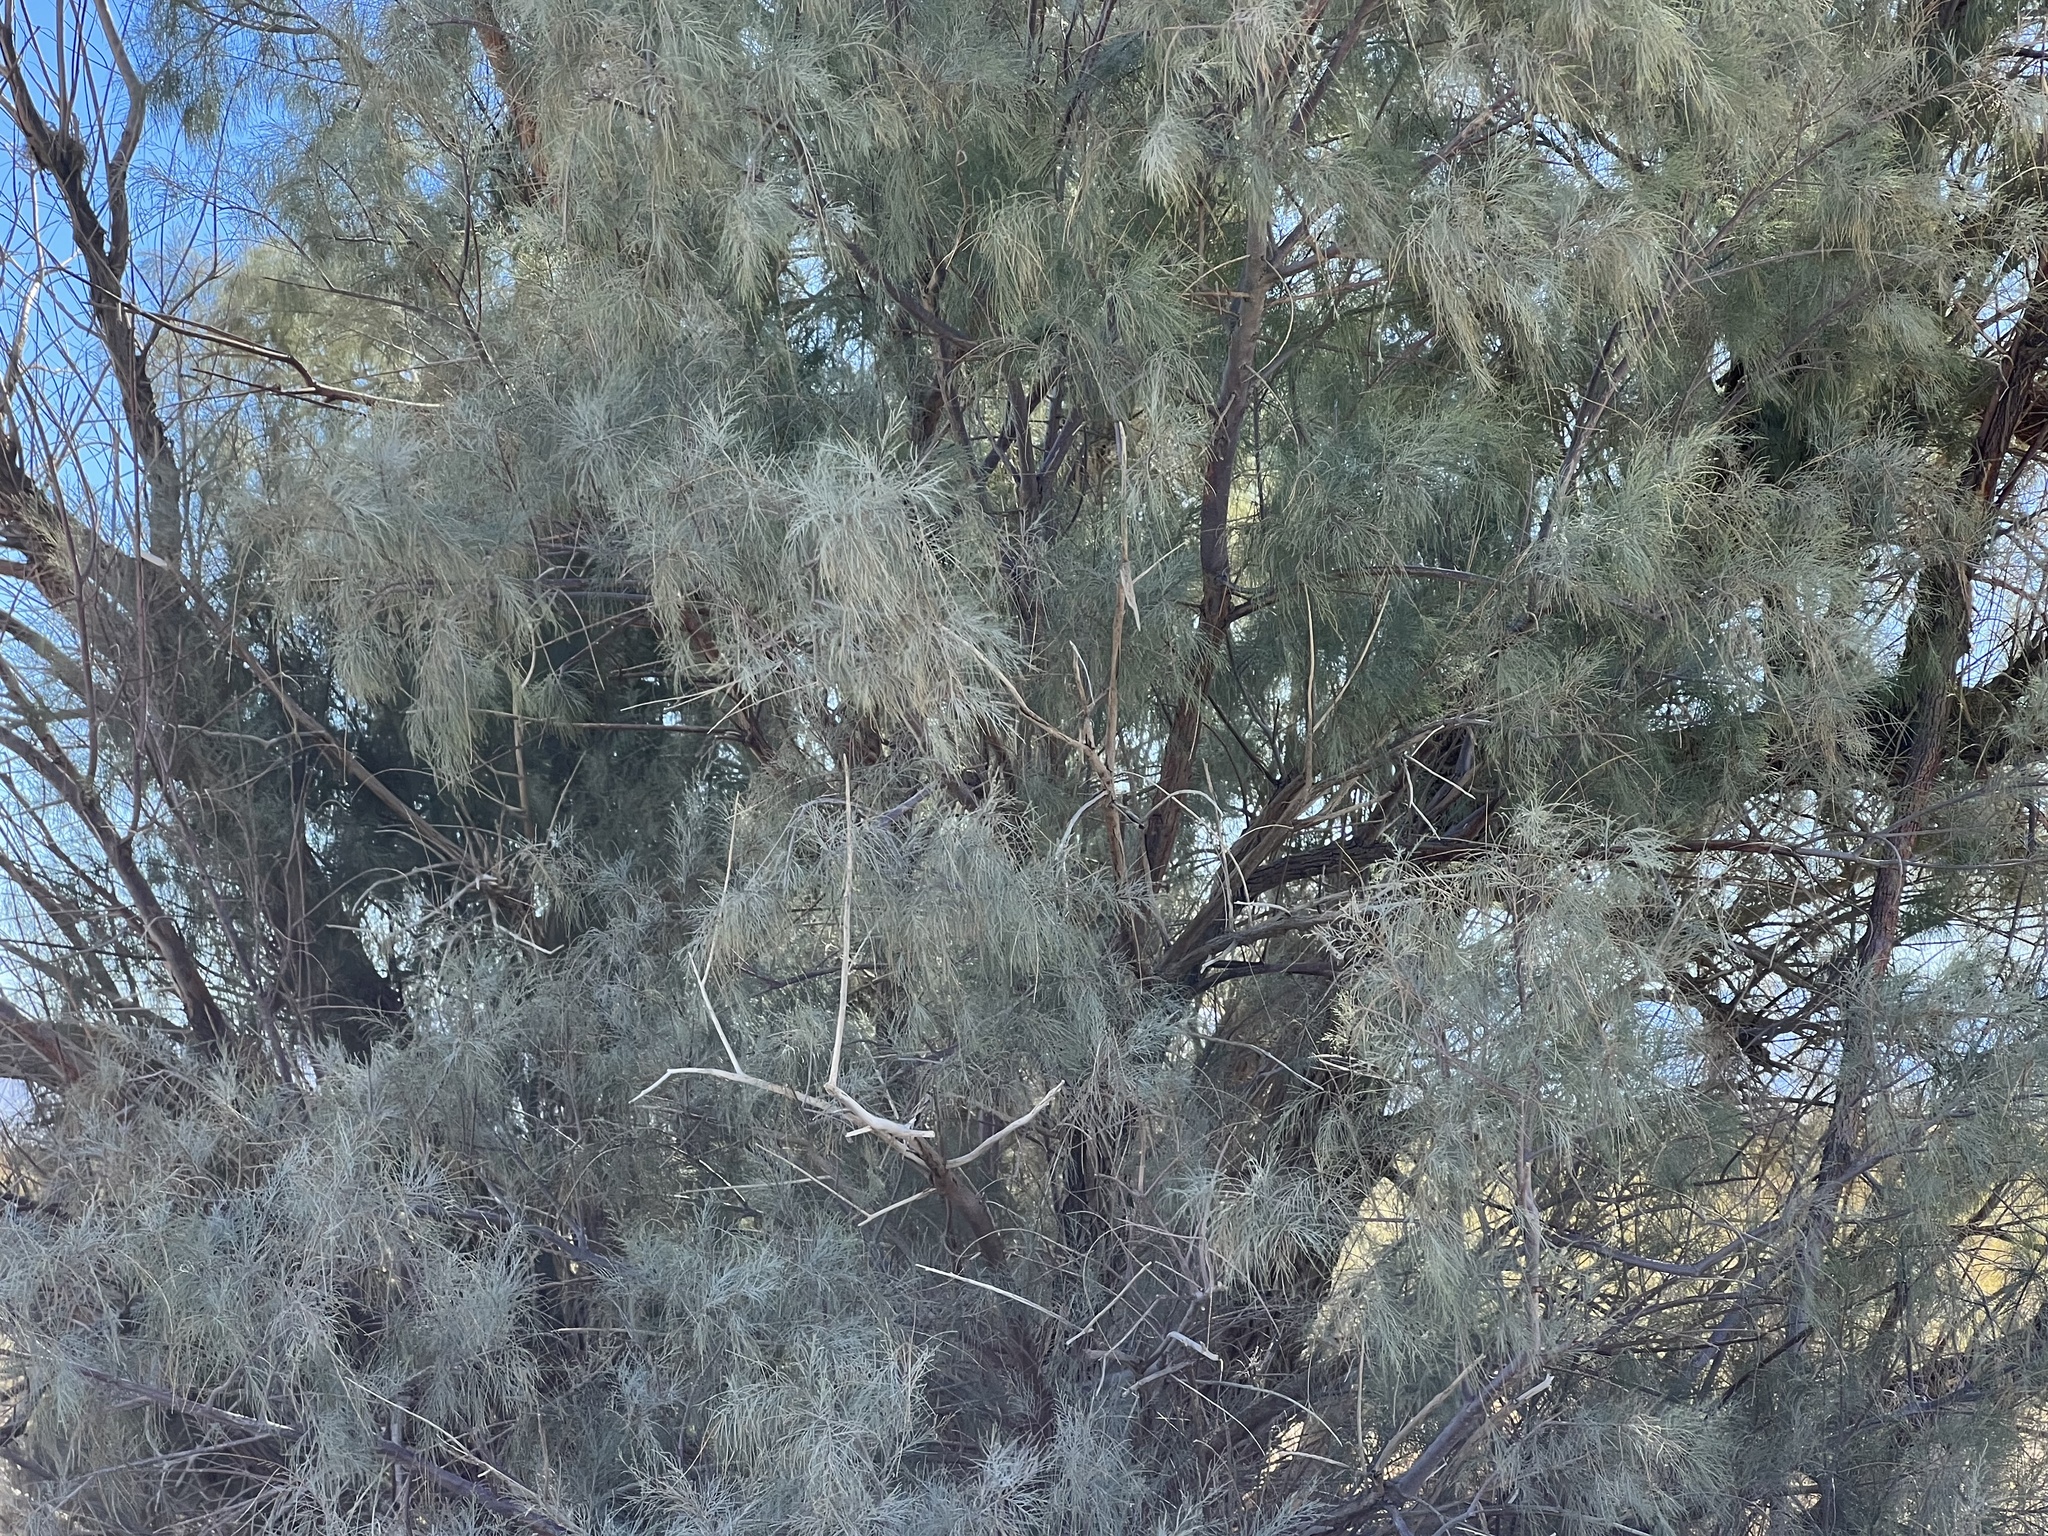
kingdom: Plantae
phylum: Tracheophyta
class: Magnoliopsida
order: Caryophyllales
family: Tamaricaceae
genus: Tamarix
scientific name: Tamarix aphylla
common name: Athel tamarisk
